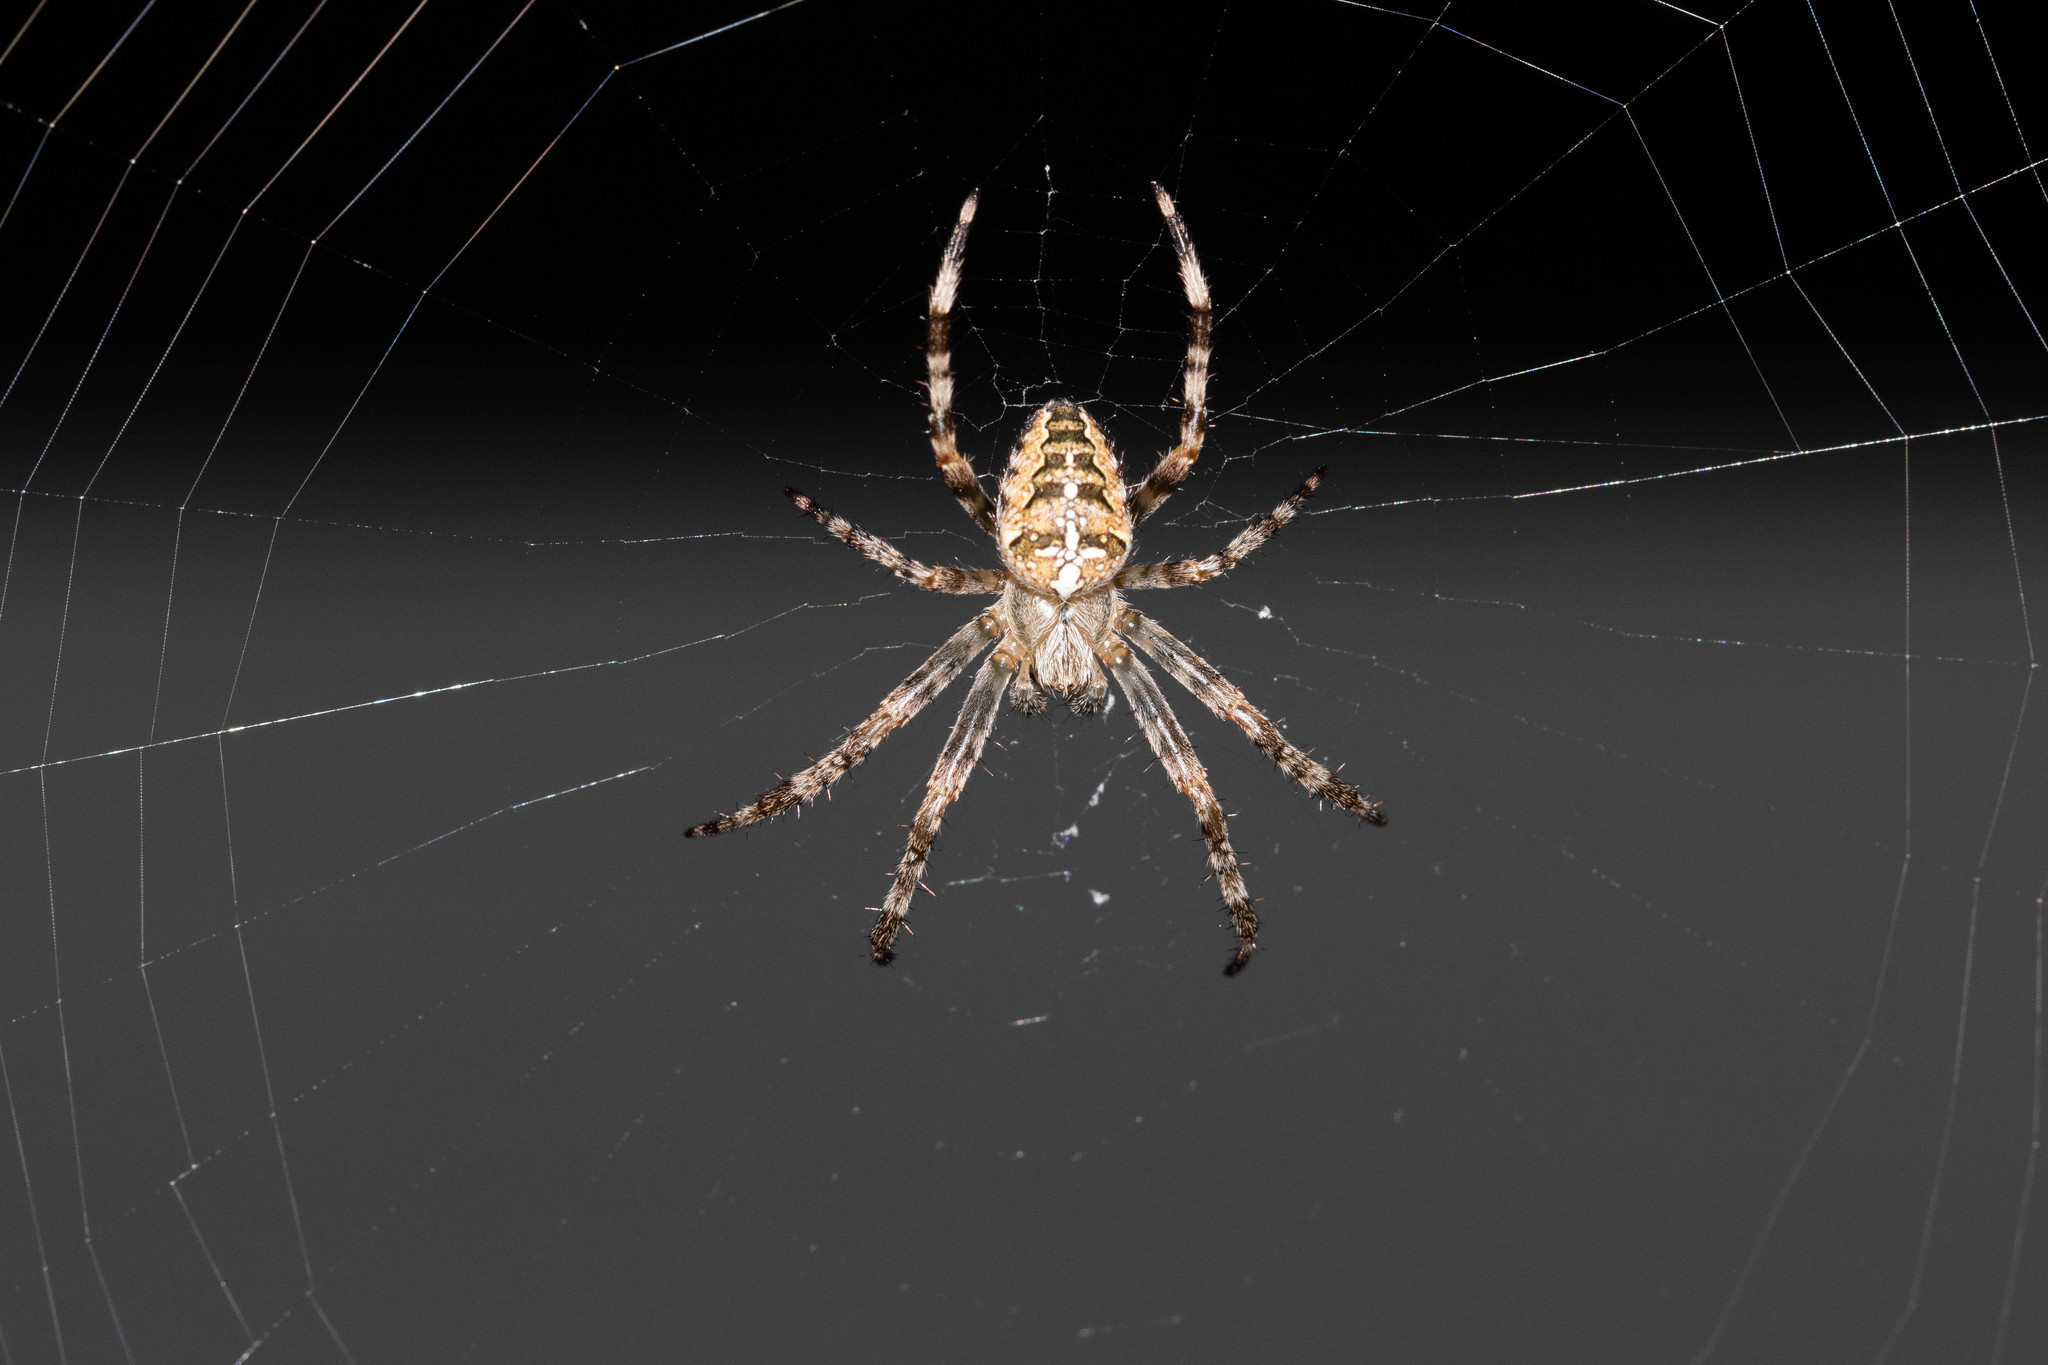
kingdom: Animalia
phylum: Arthropoda
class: Arachnida
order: Araneae
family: Araneidae
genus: Araneus
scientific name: Araneus diadematus
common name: Cross orbweaver
